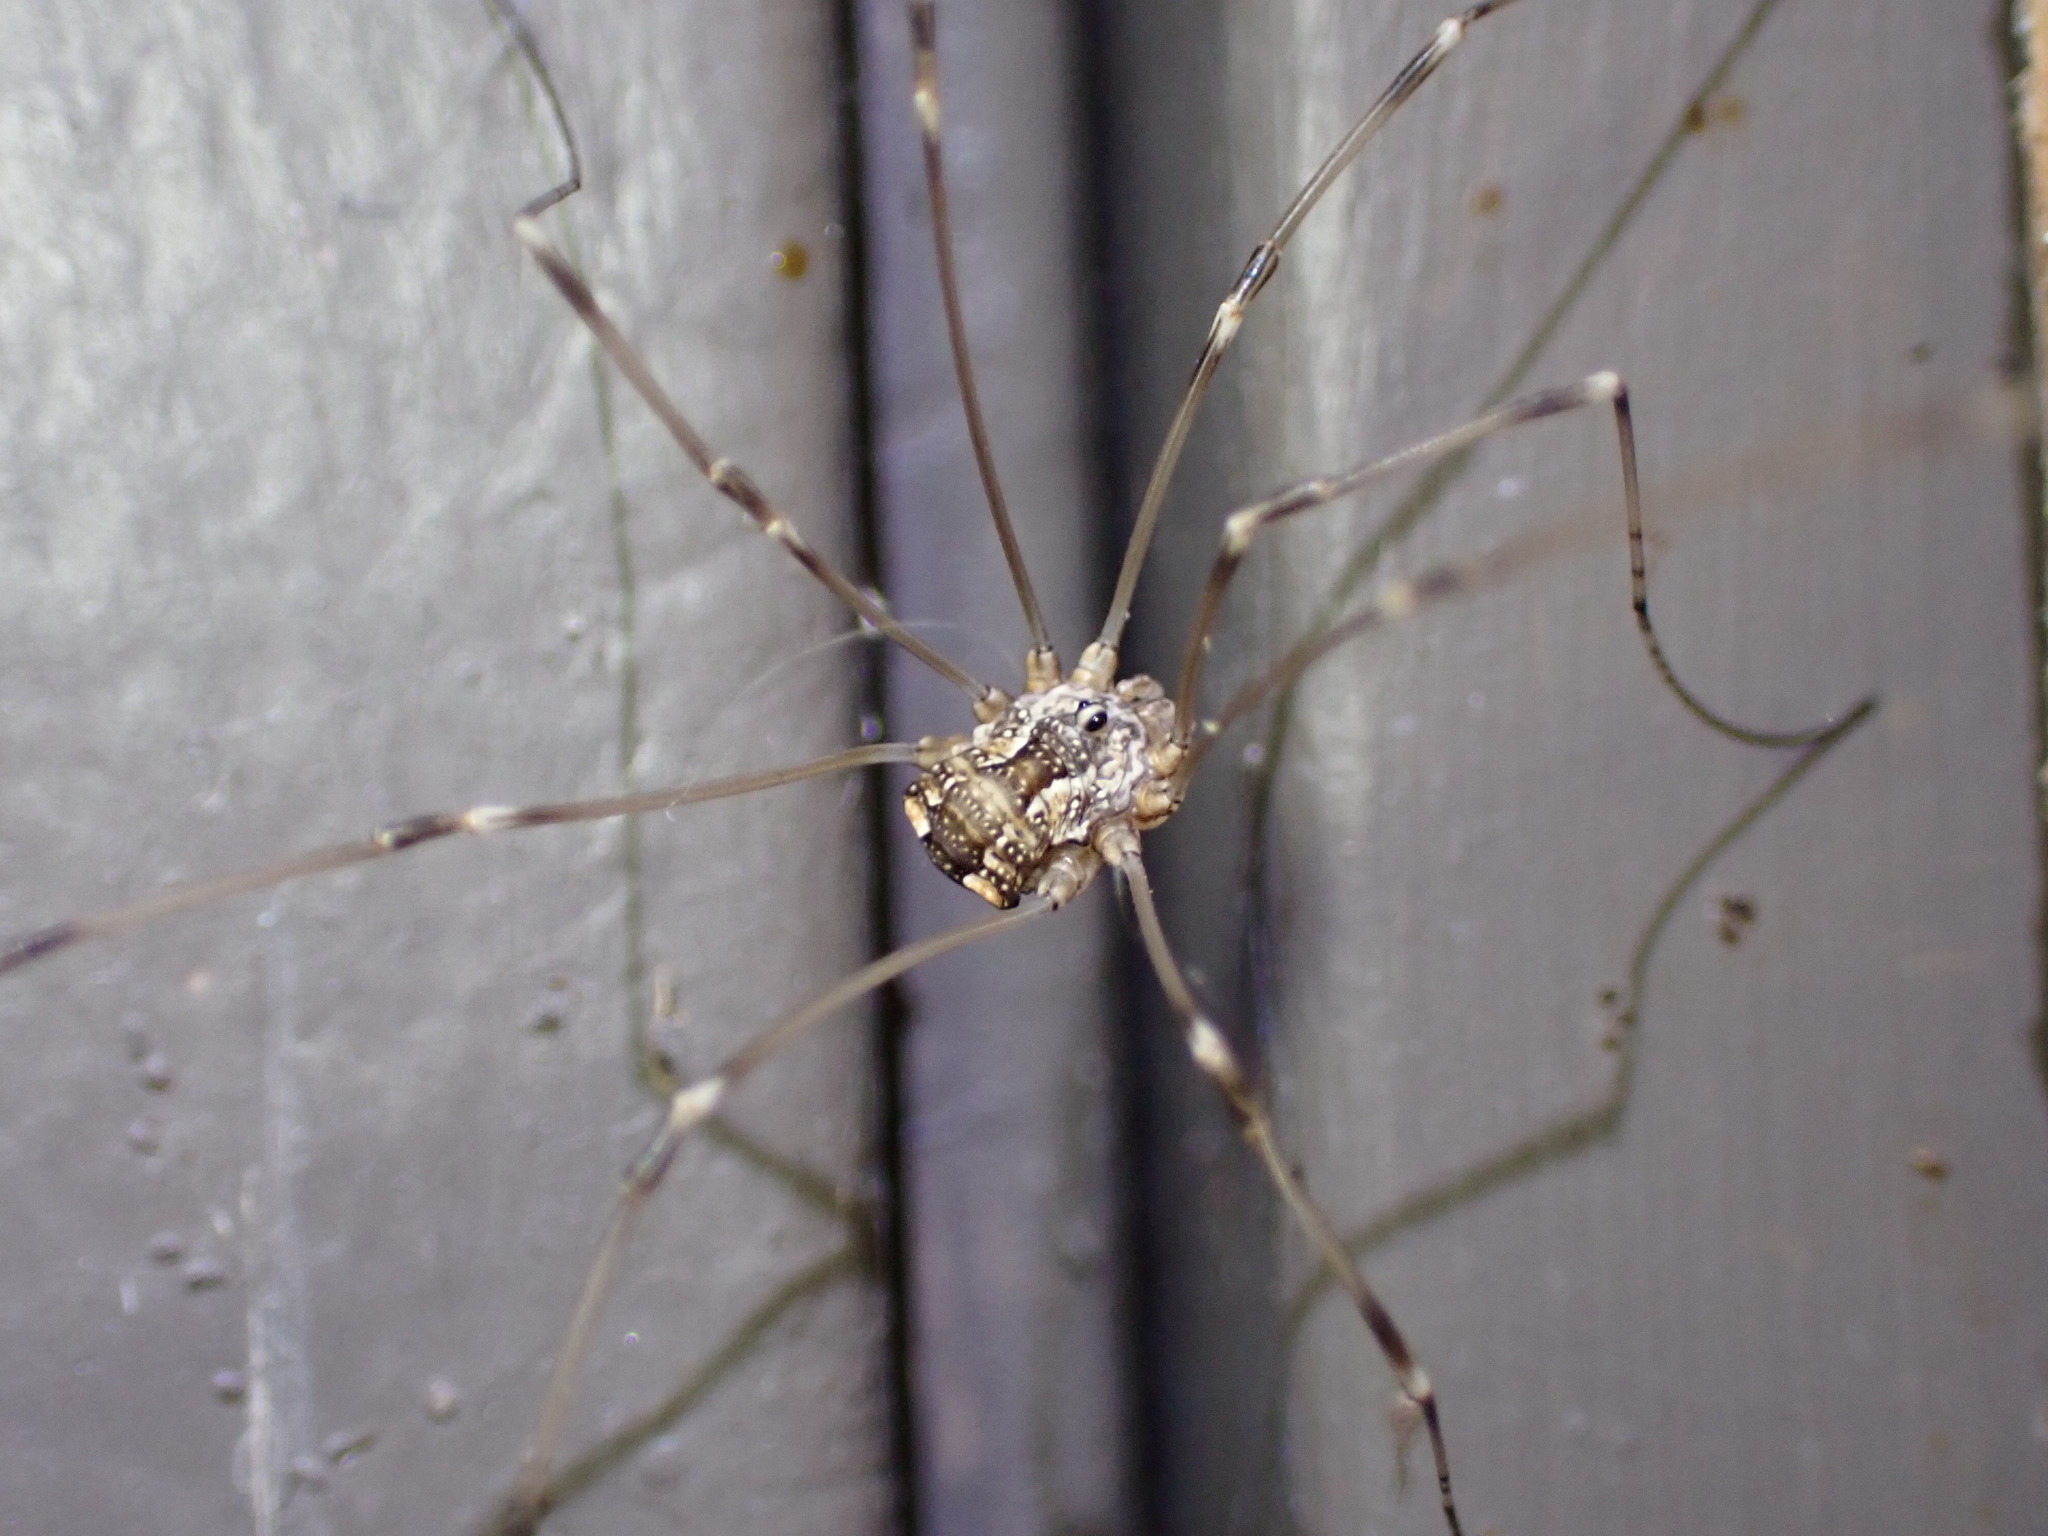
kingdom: Animalia
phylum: Arthropoda
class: Arachnida
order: Opiliones
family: Sclerosomatidae
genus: Leuronychus
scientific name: Leuronychus pacificus
